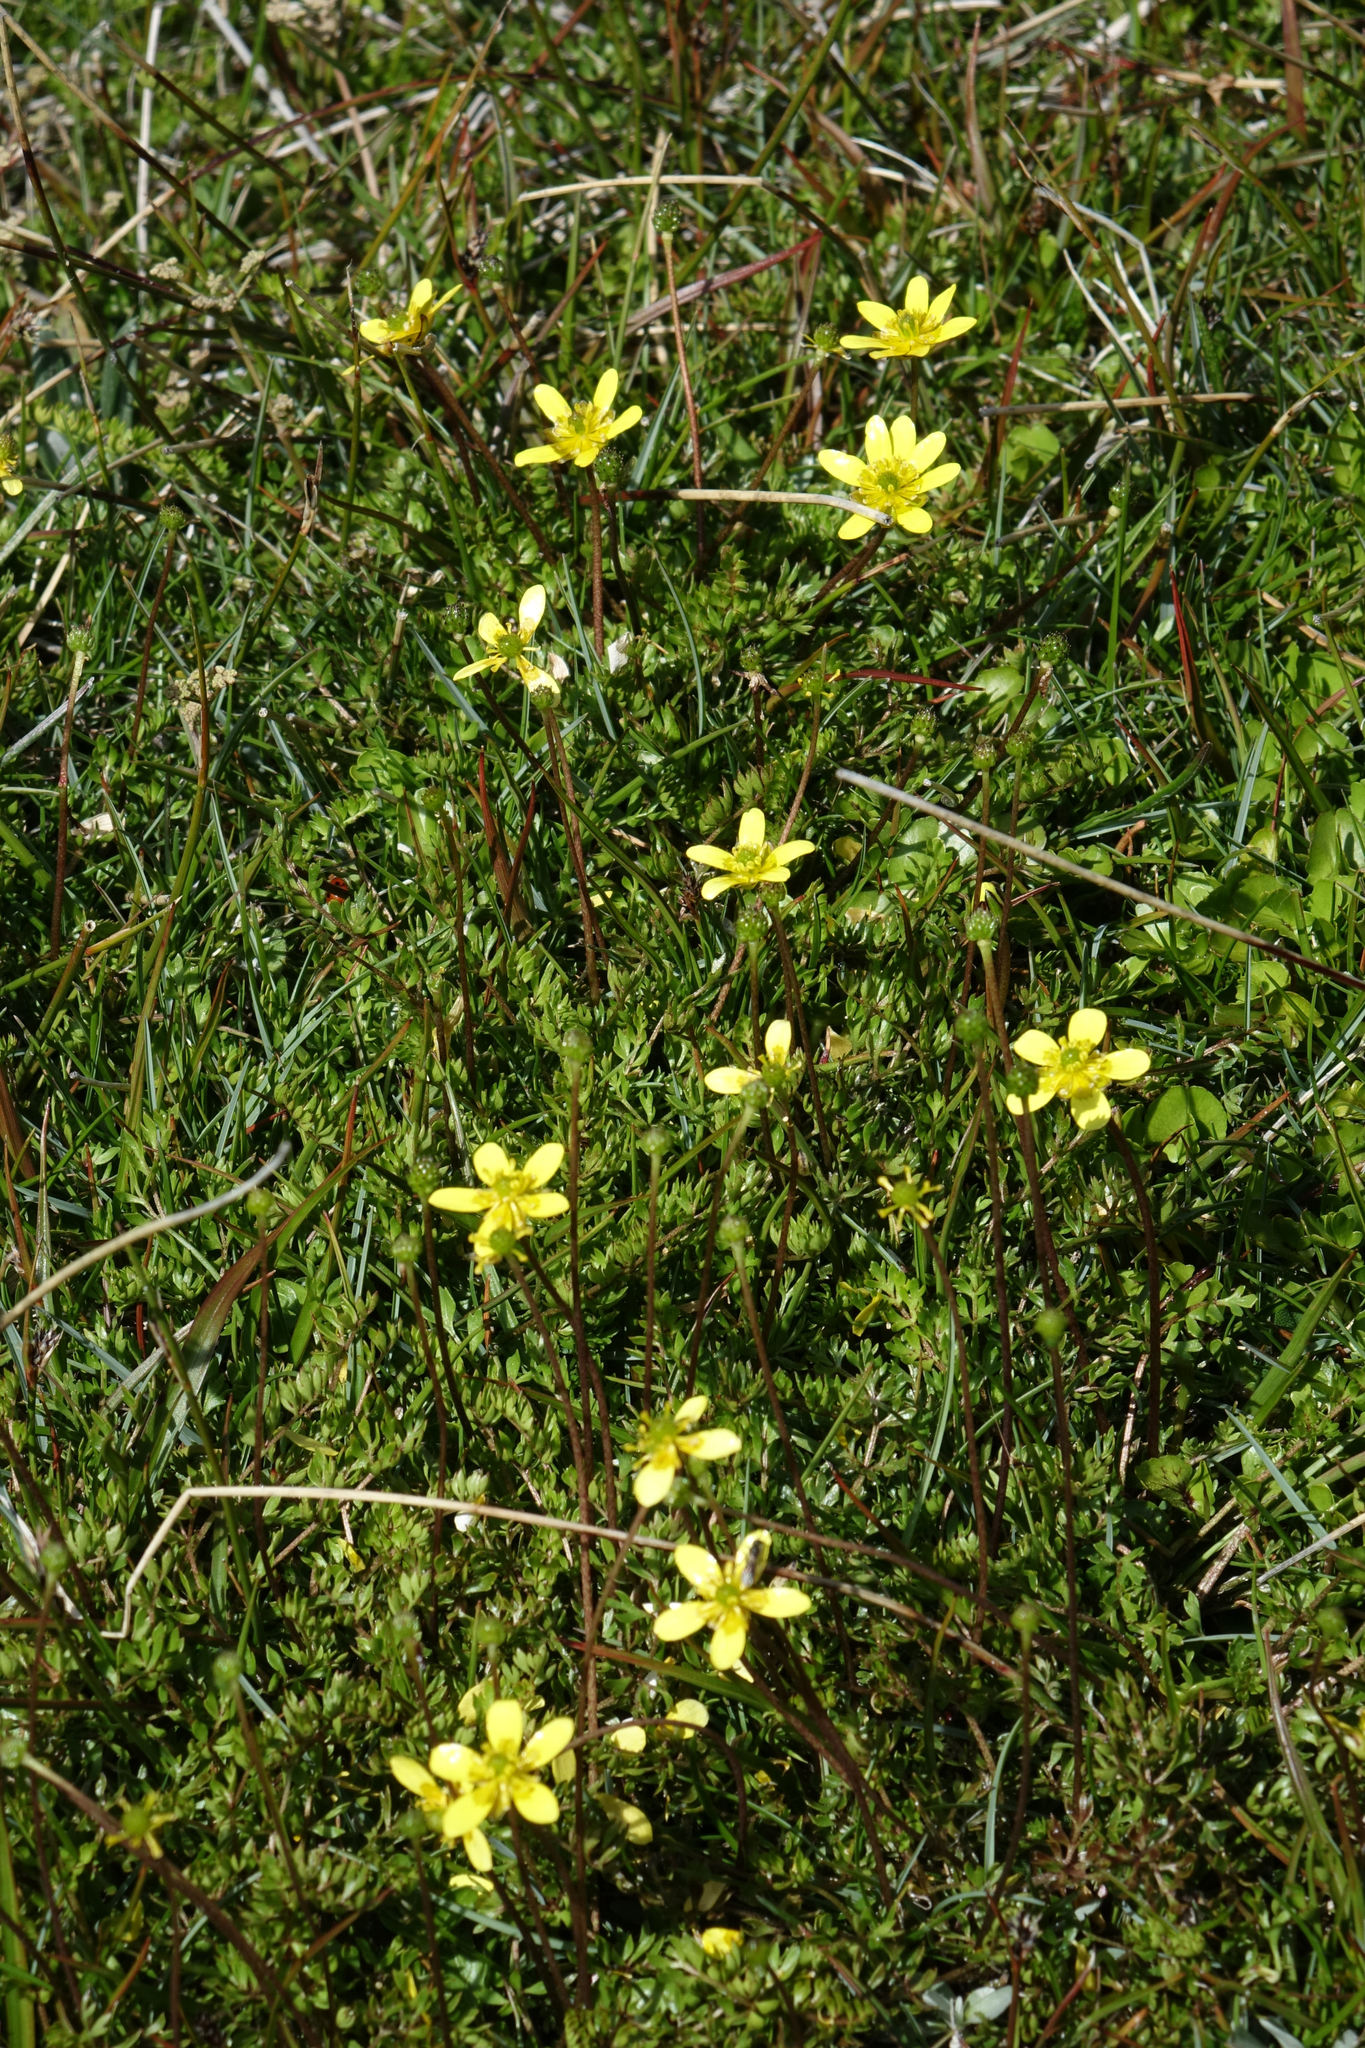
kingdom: Plantae
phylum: Tracheophyta
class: Magnoliopsida
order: Ranunculales
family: Ranunculaceae
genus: Ranunculus
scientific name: Ranunculus gracilipes
